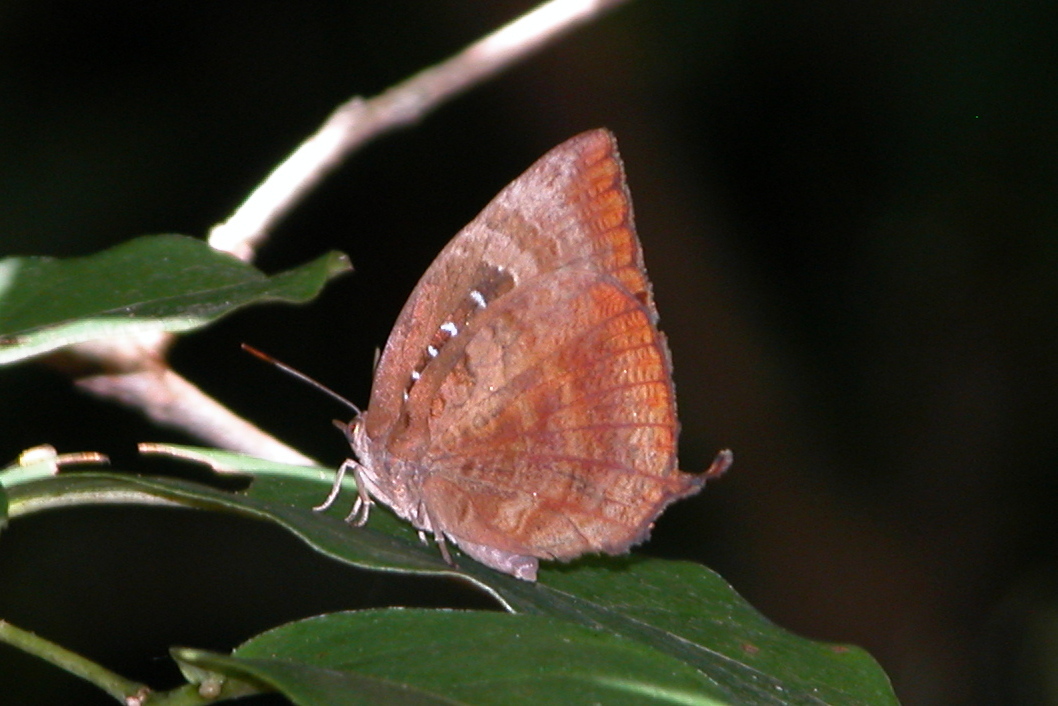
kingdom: Animalia
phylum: Arthropoda
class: Insecta
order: Lepidoptera
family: Lycaenidae
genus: Arhopala
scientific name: Arhopala centaurus
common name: Dull oak-blue
